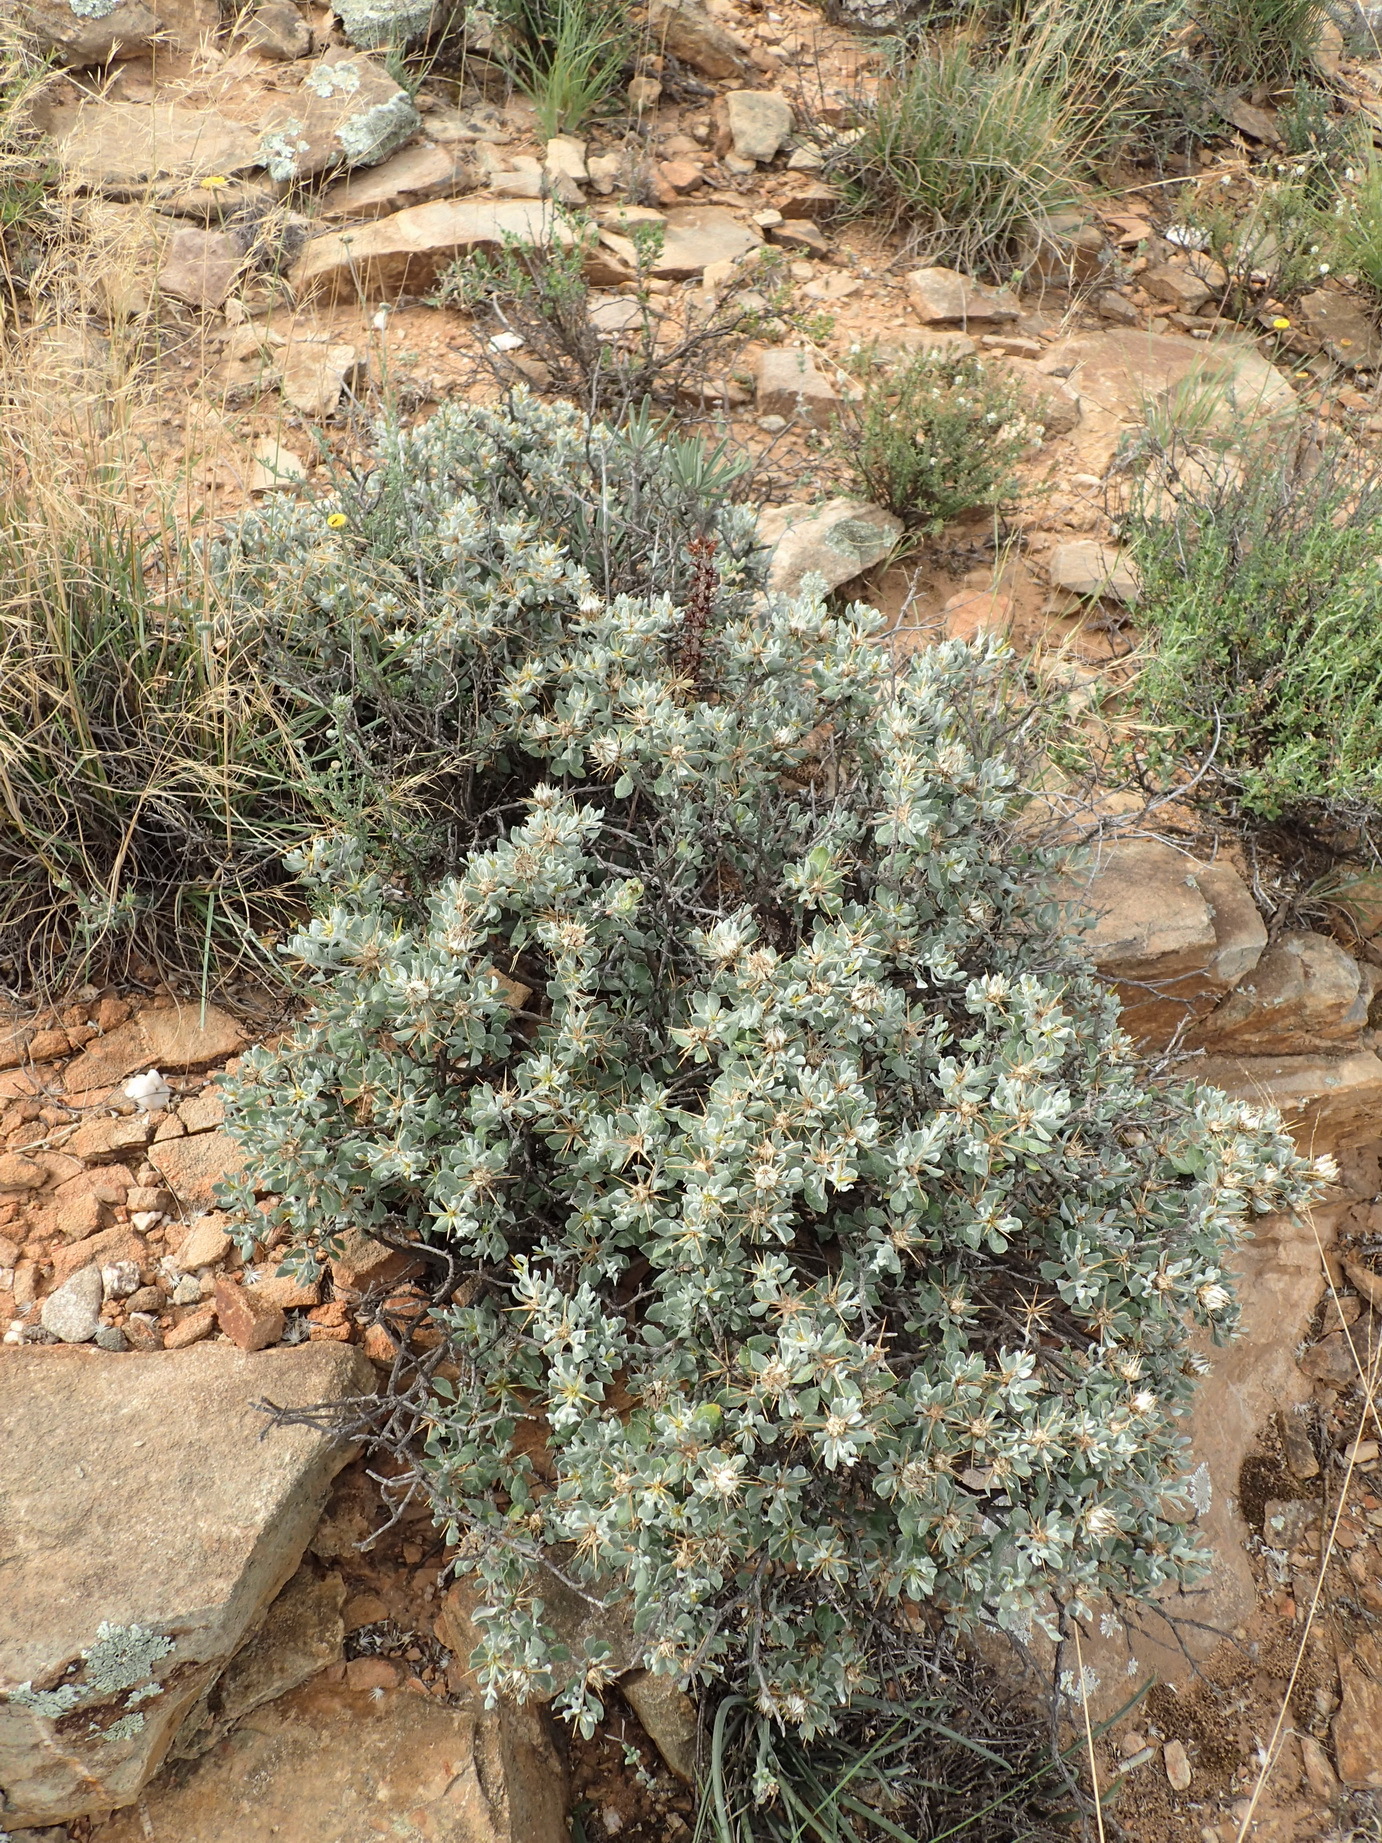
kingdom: Plantae
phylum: Tracheophyta
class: Magnoliopsida
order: Asterales
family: Asteraceae
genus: Macledium
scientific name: Macledium spinosum
